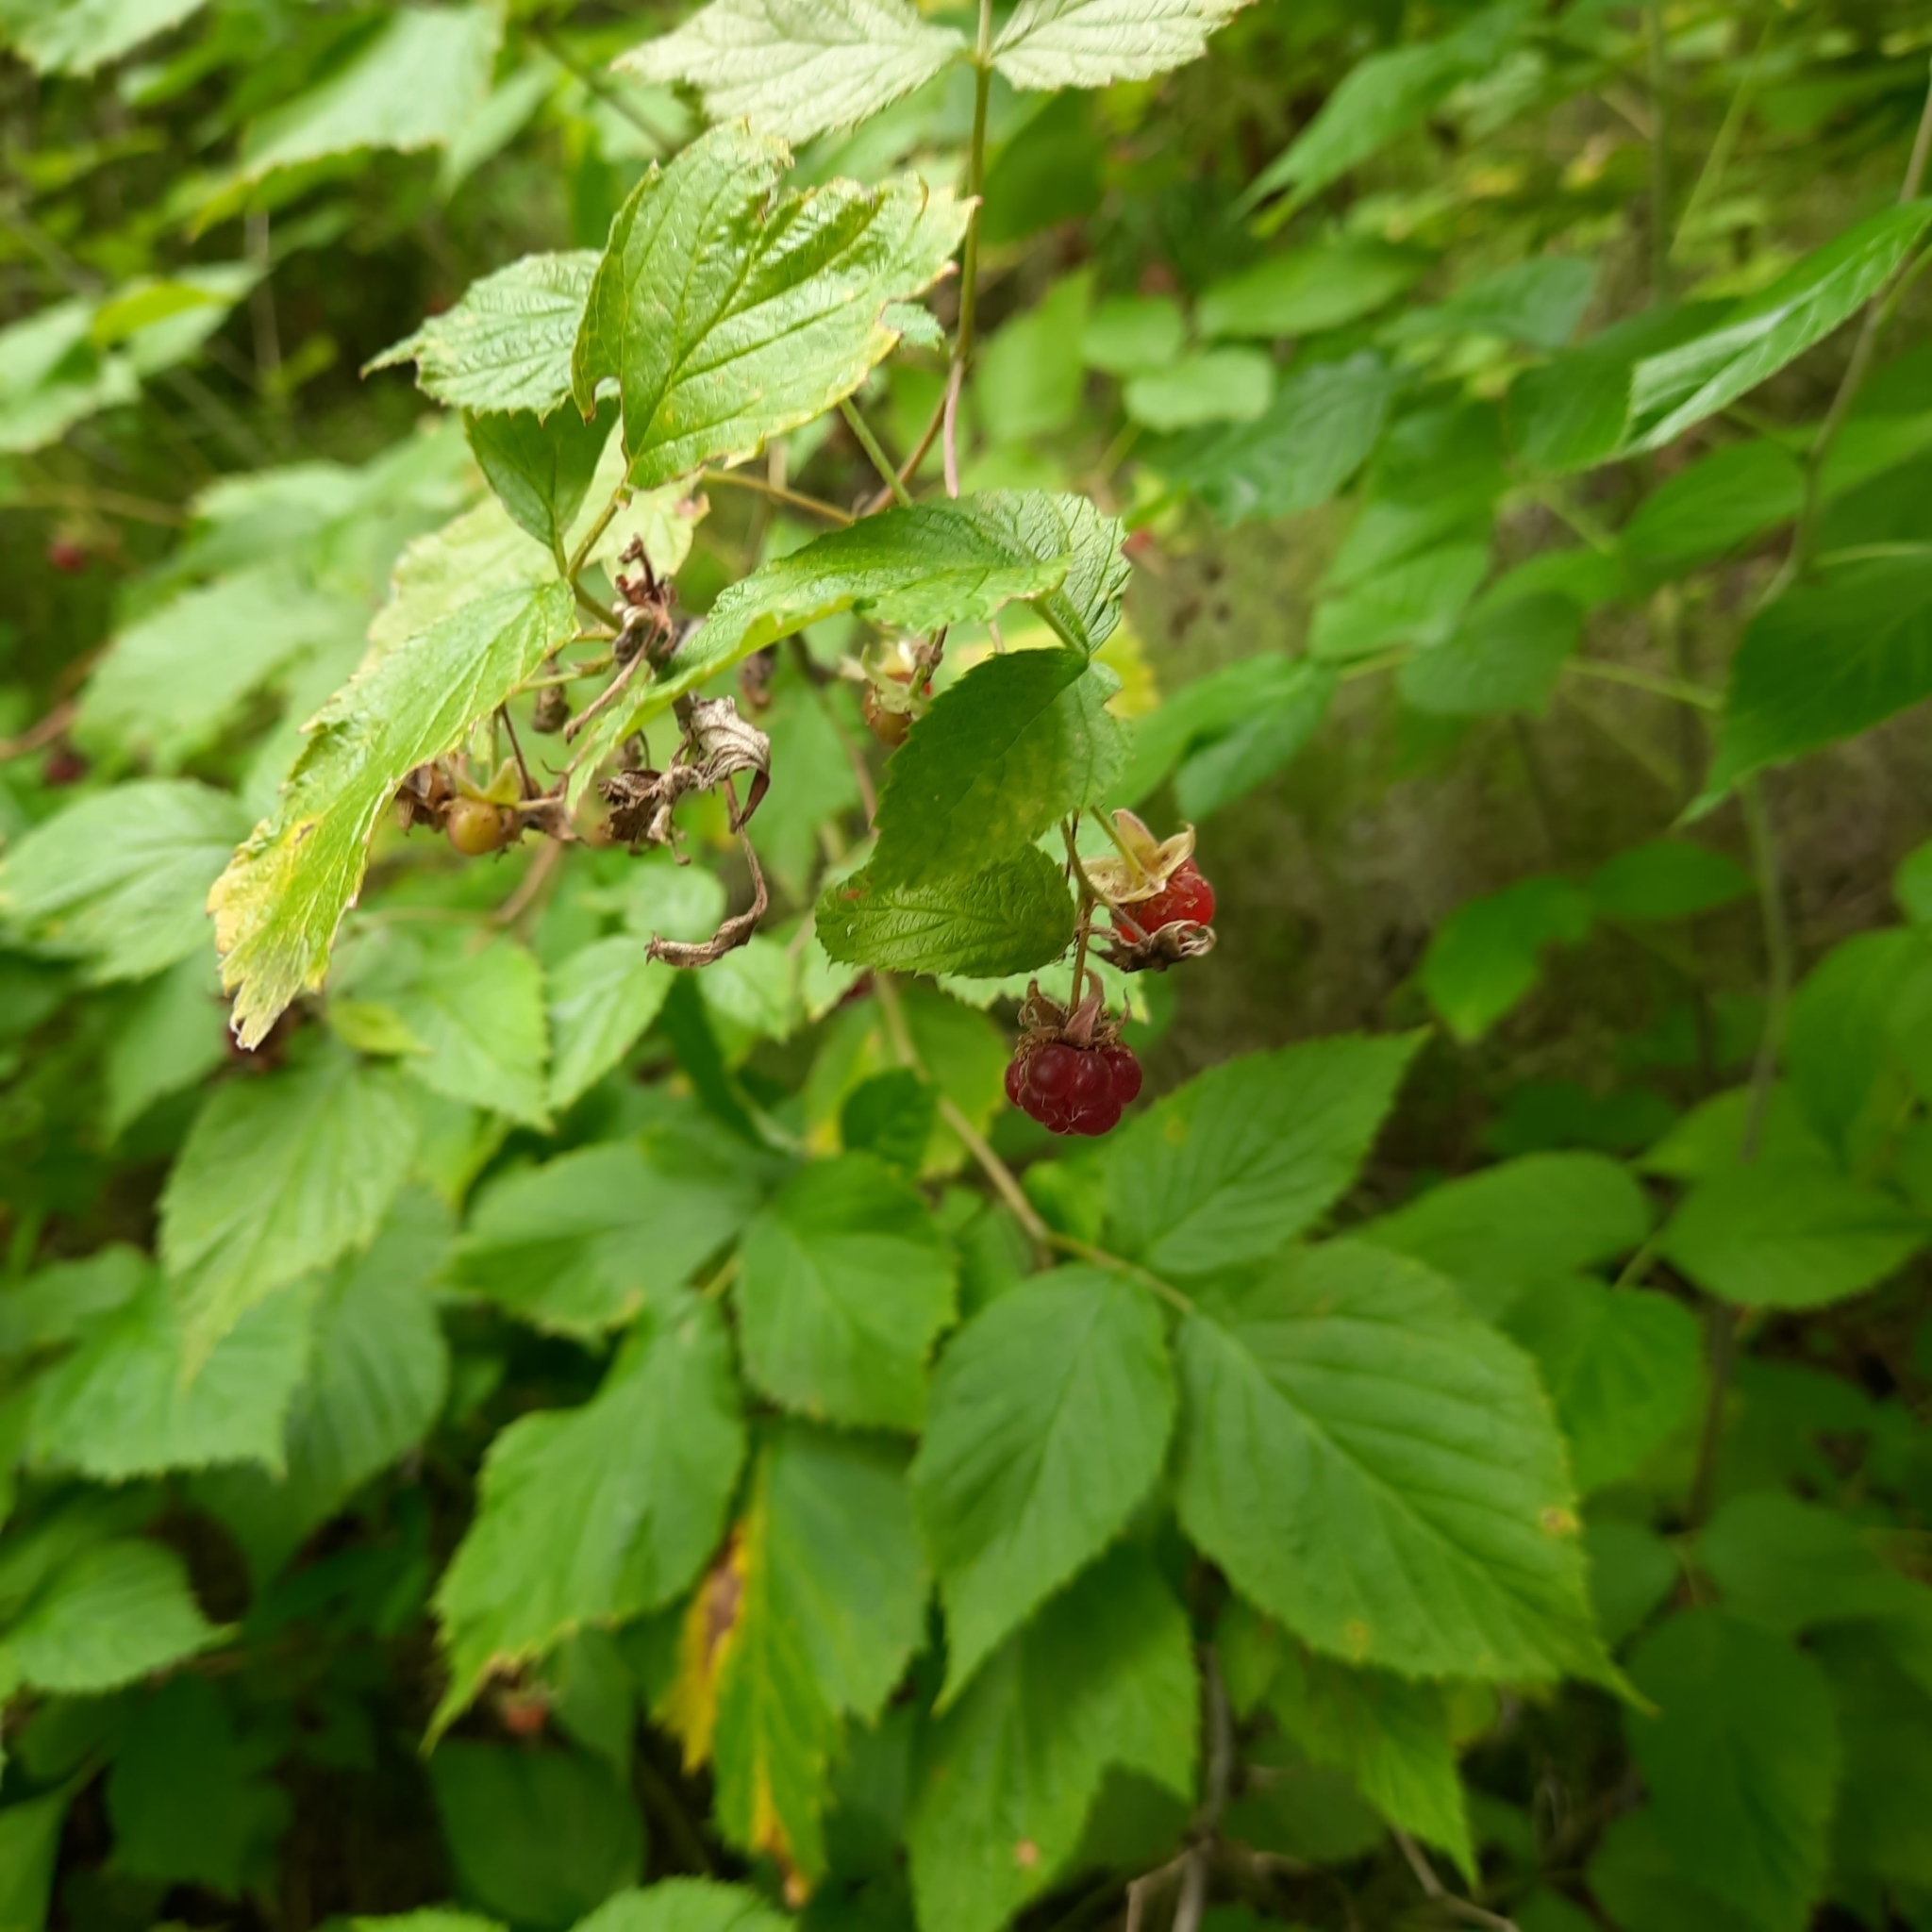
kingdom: Plantae
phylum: Tracheophyta
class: Magnoliopsida
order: Rosales
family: Rosaceae
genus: Rubus
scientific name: Rubus sachalinensis
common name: Red raspberry
